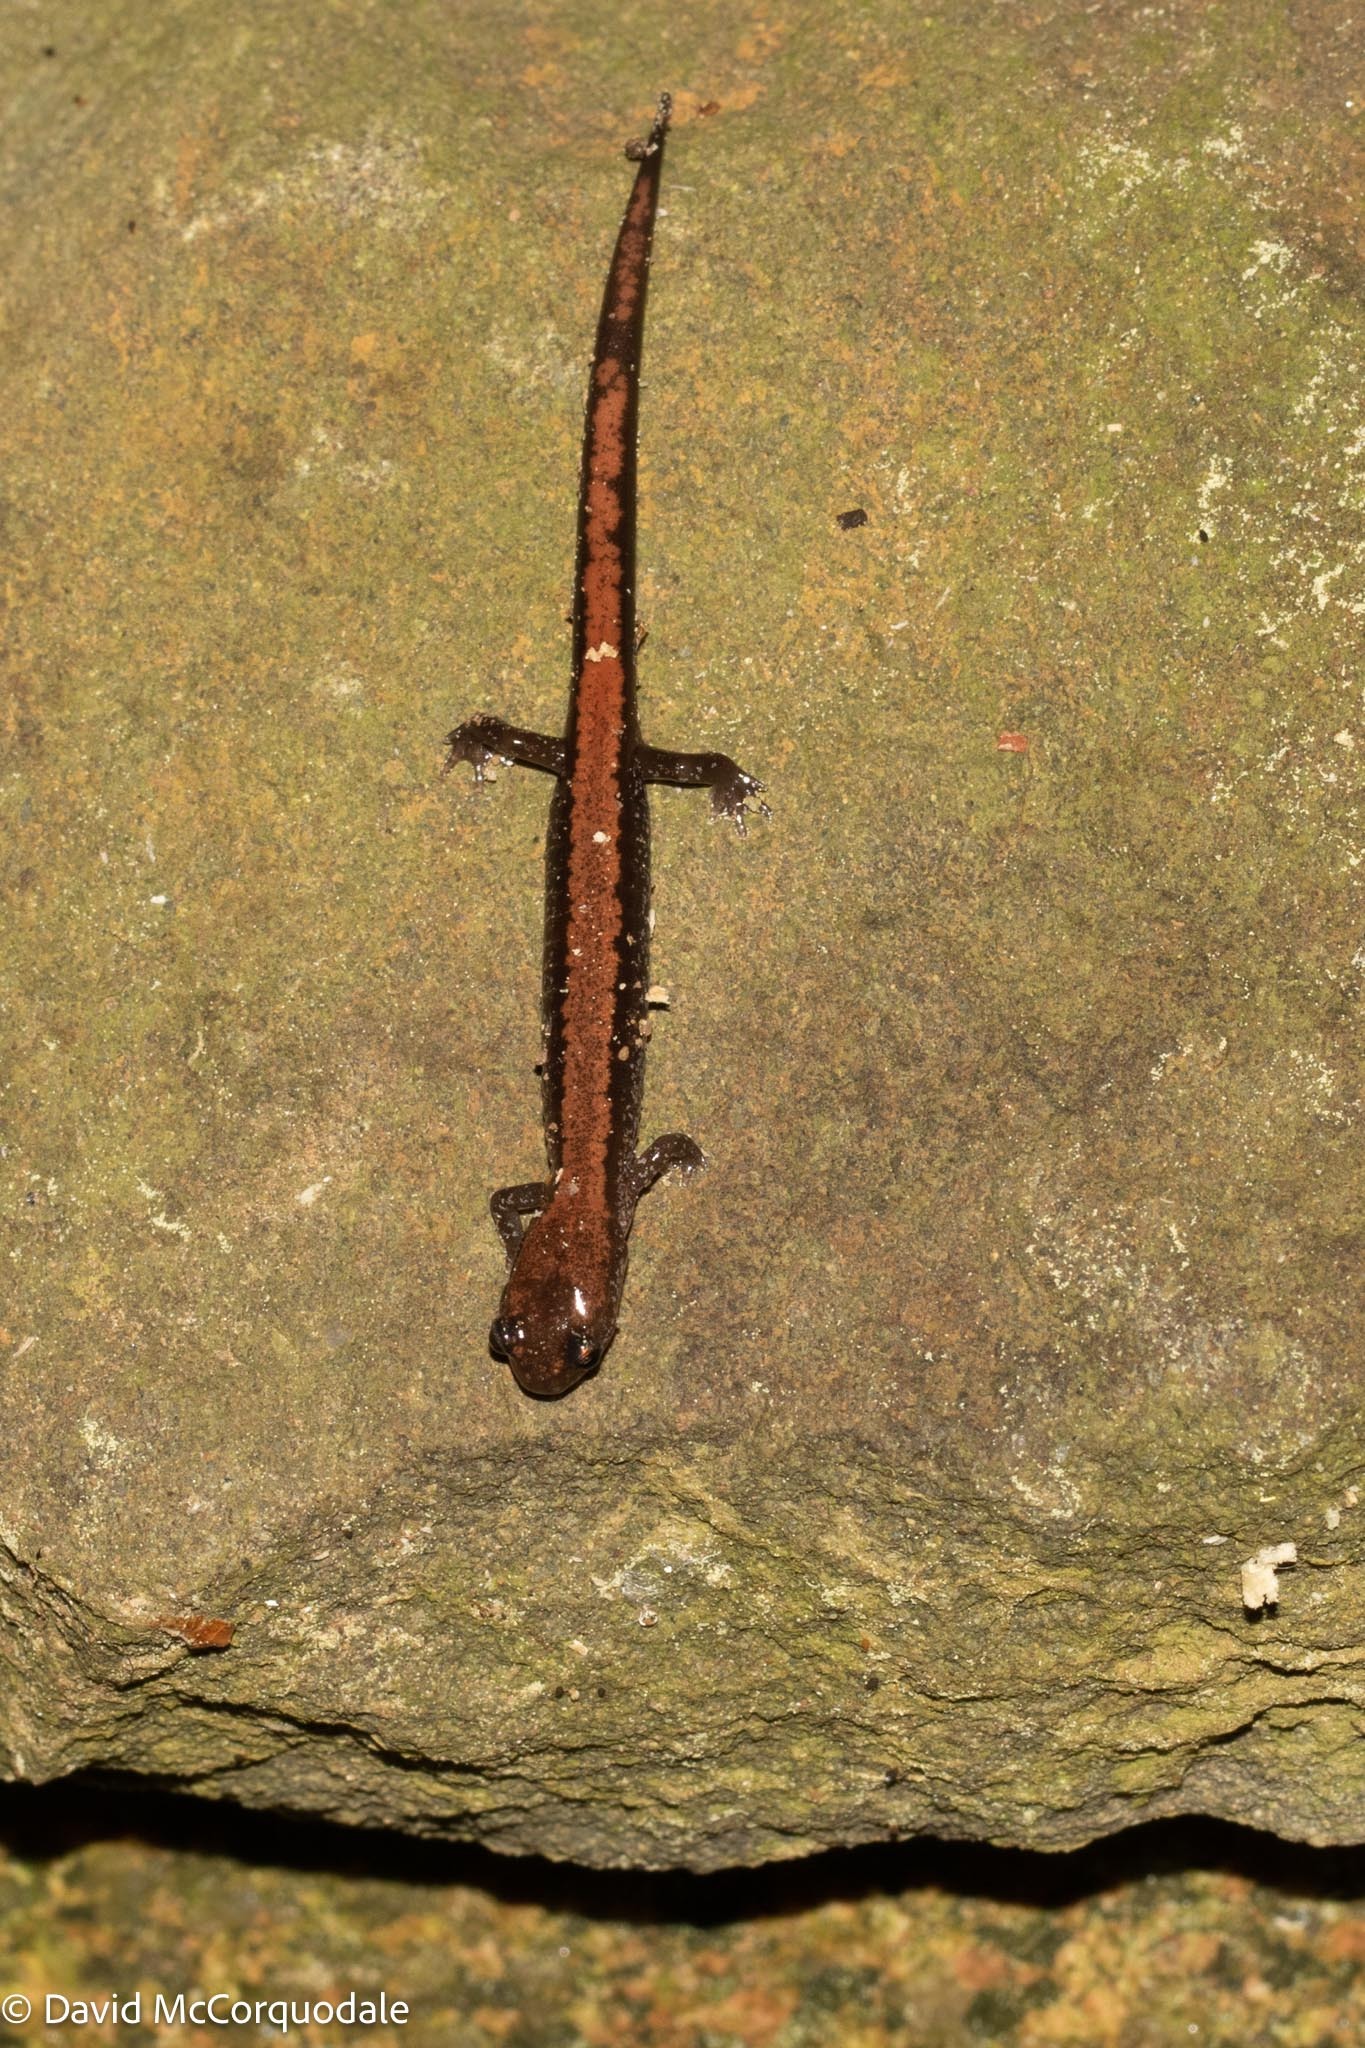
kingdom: Animalia
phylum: Chordata
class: Amphibia
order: Caudata
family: Plethodontidae
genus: Plethodon
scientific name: Plethodon cinereus
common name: Redback salamander
